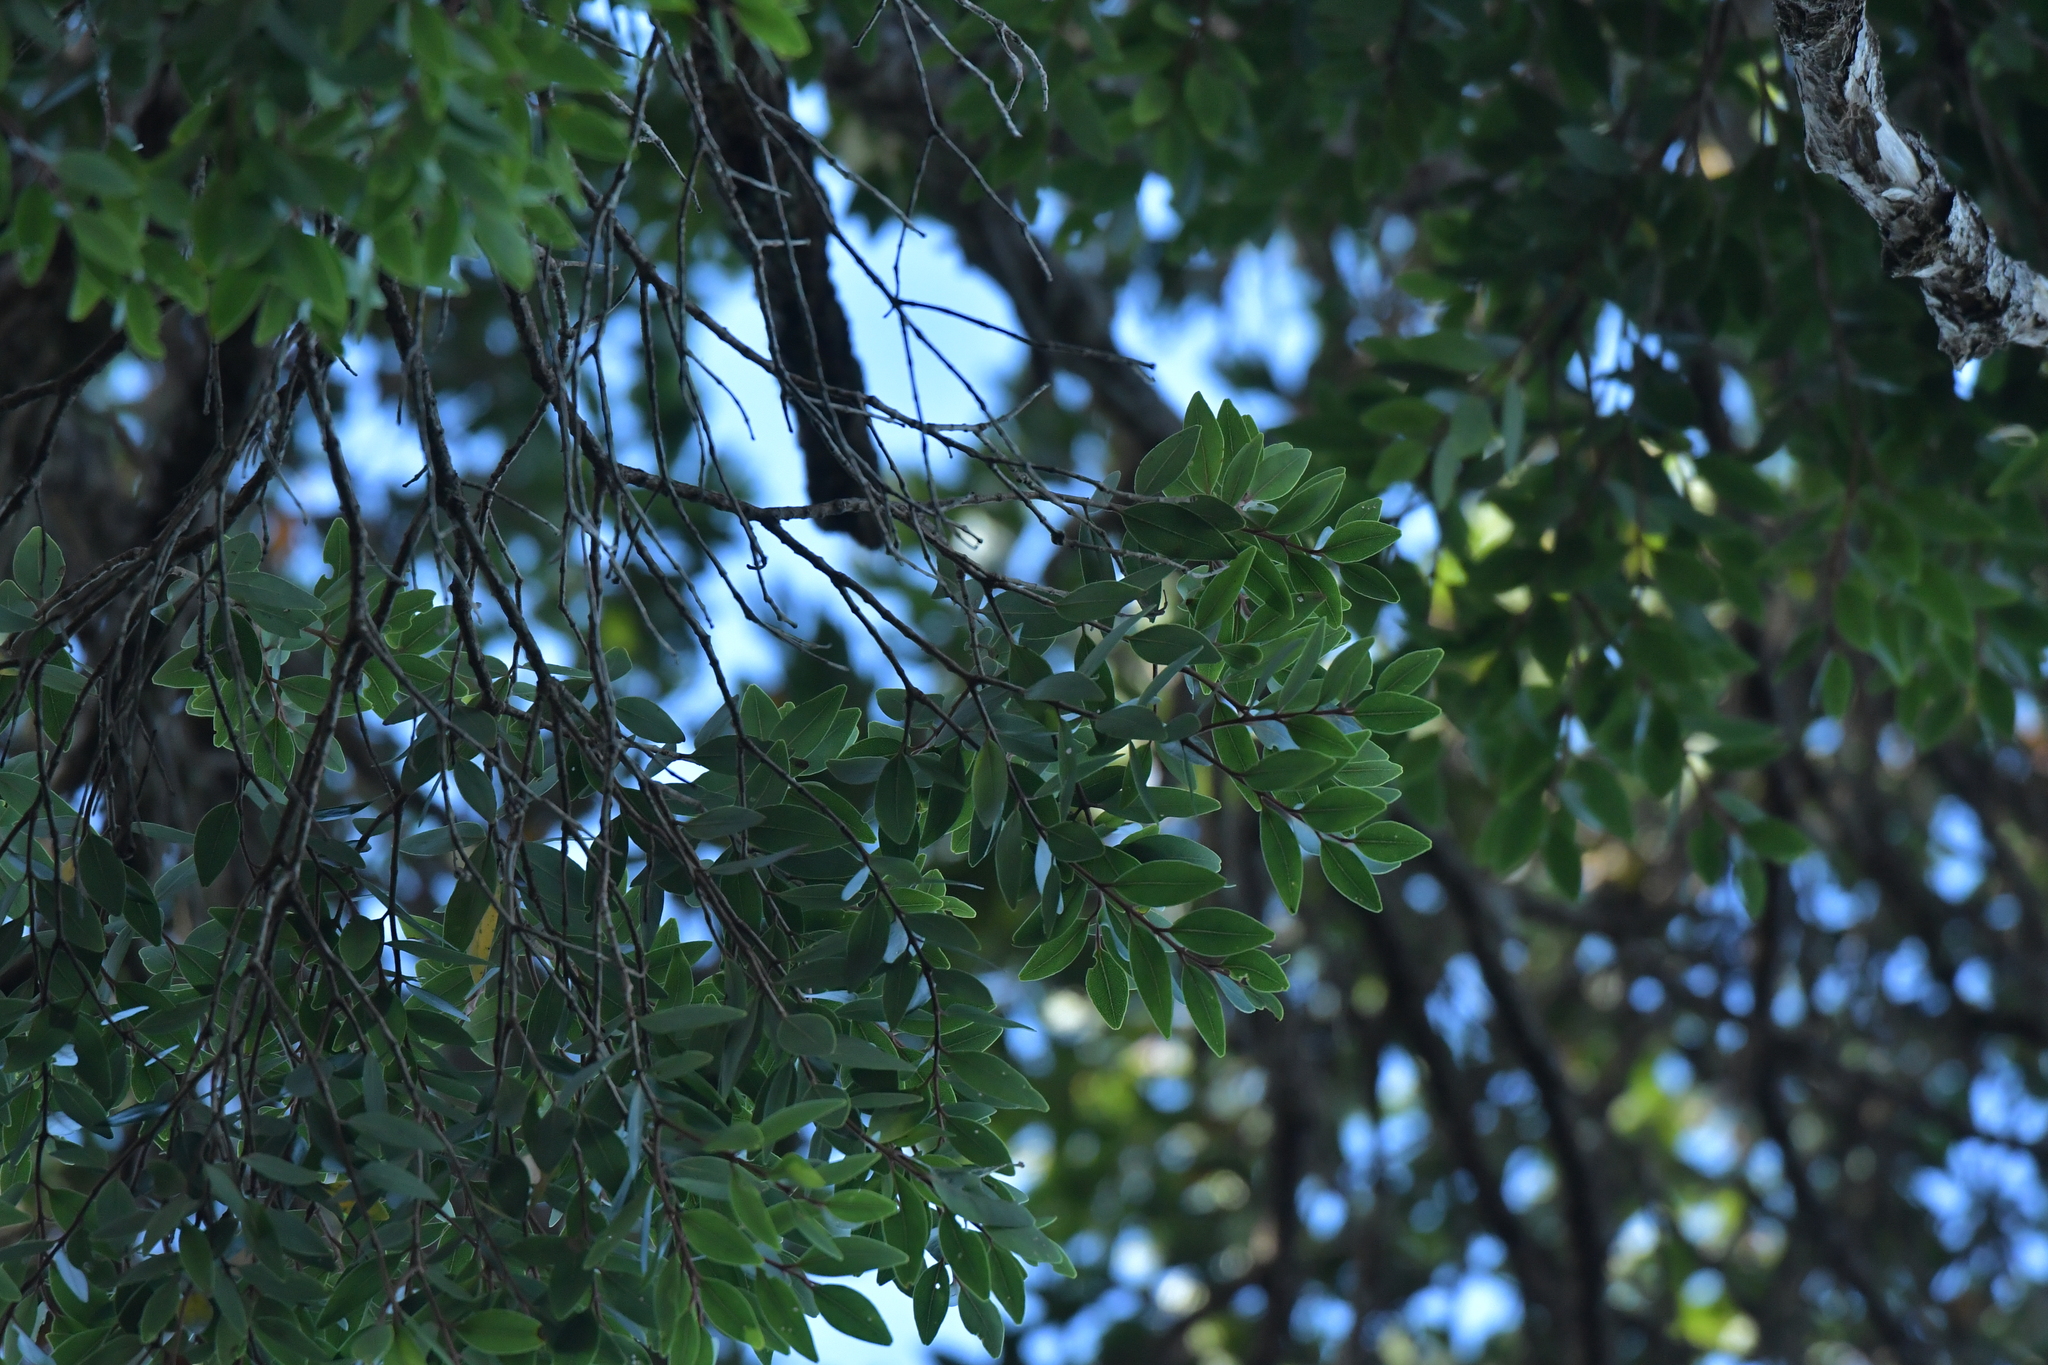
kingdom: Plantae
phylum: Tracheophyta
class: Magnoliopsida
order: Myrtales
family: Myrtaceae
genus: Metrosideros
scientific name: Metrosideros robusta
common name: Northern rata
